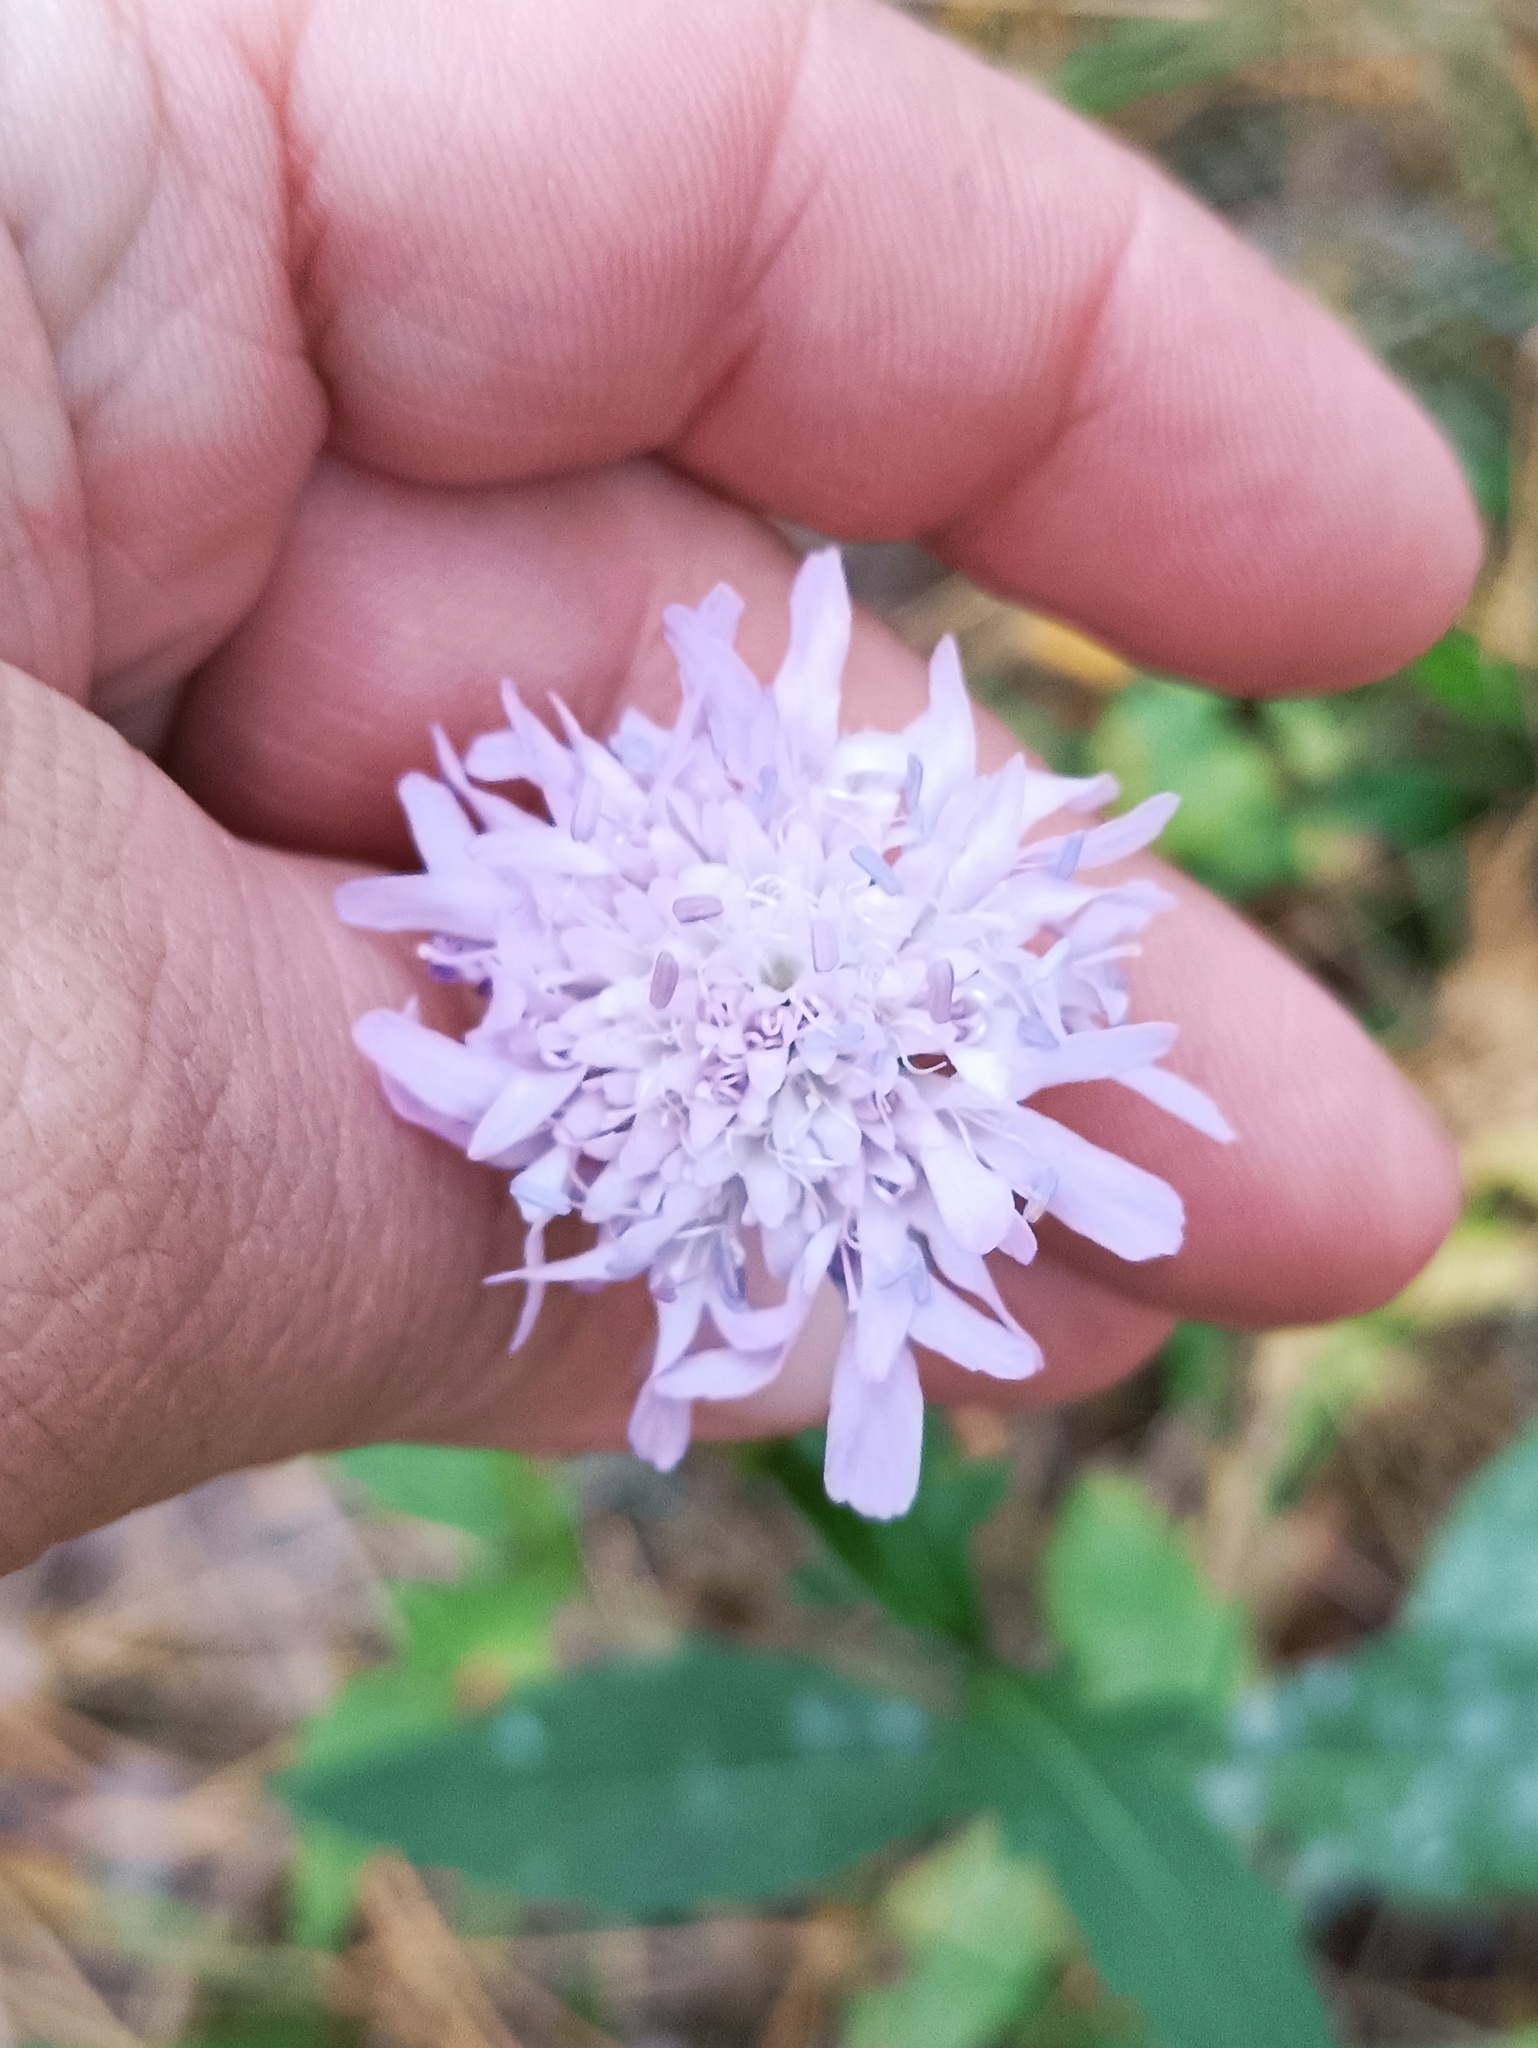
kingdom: Plantae
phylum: Tracheophyta
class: Magnoliopsida
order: Dipsacales
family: Caprifoliaceae
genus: Knautia
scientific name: Knautia arvensis
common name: Field scabiosa
